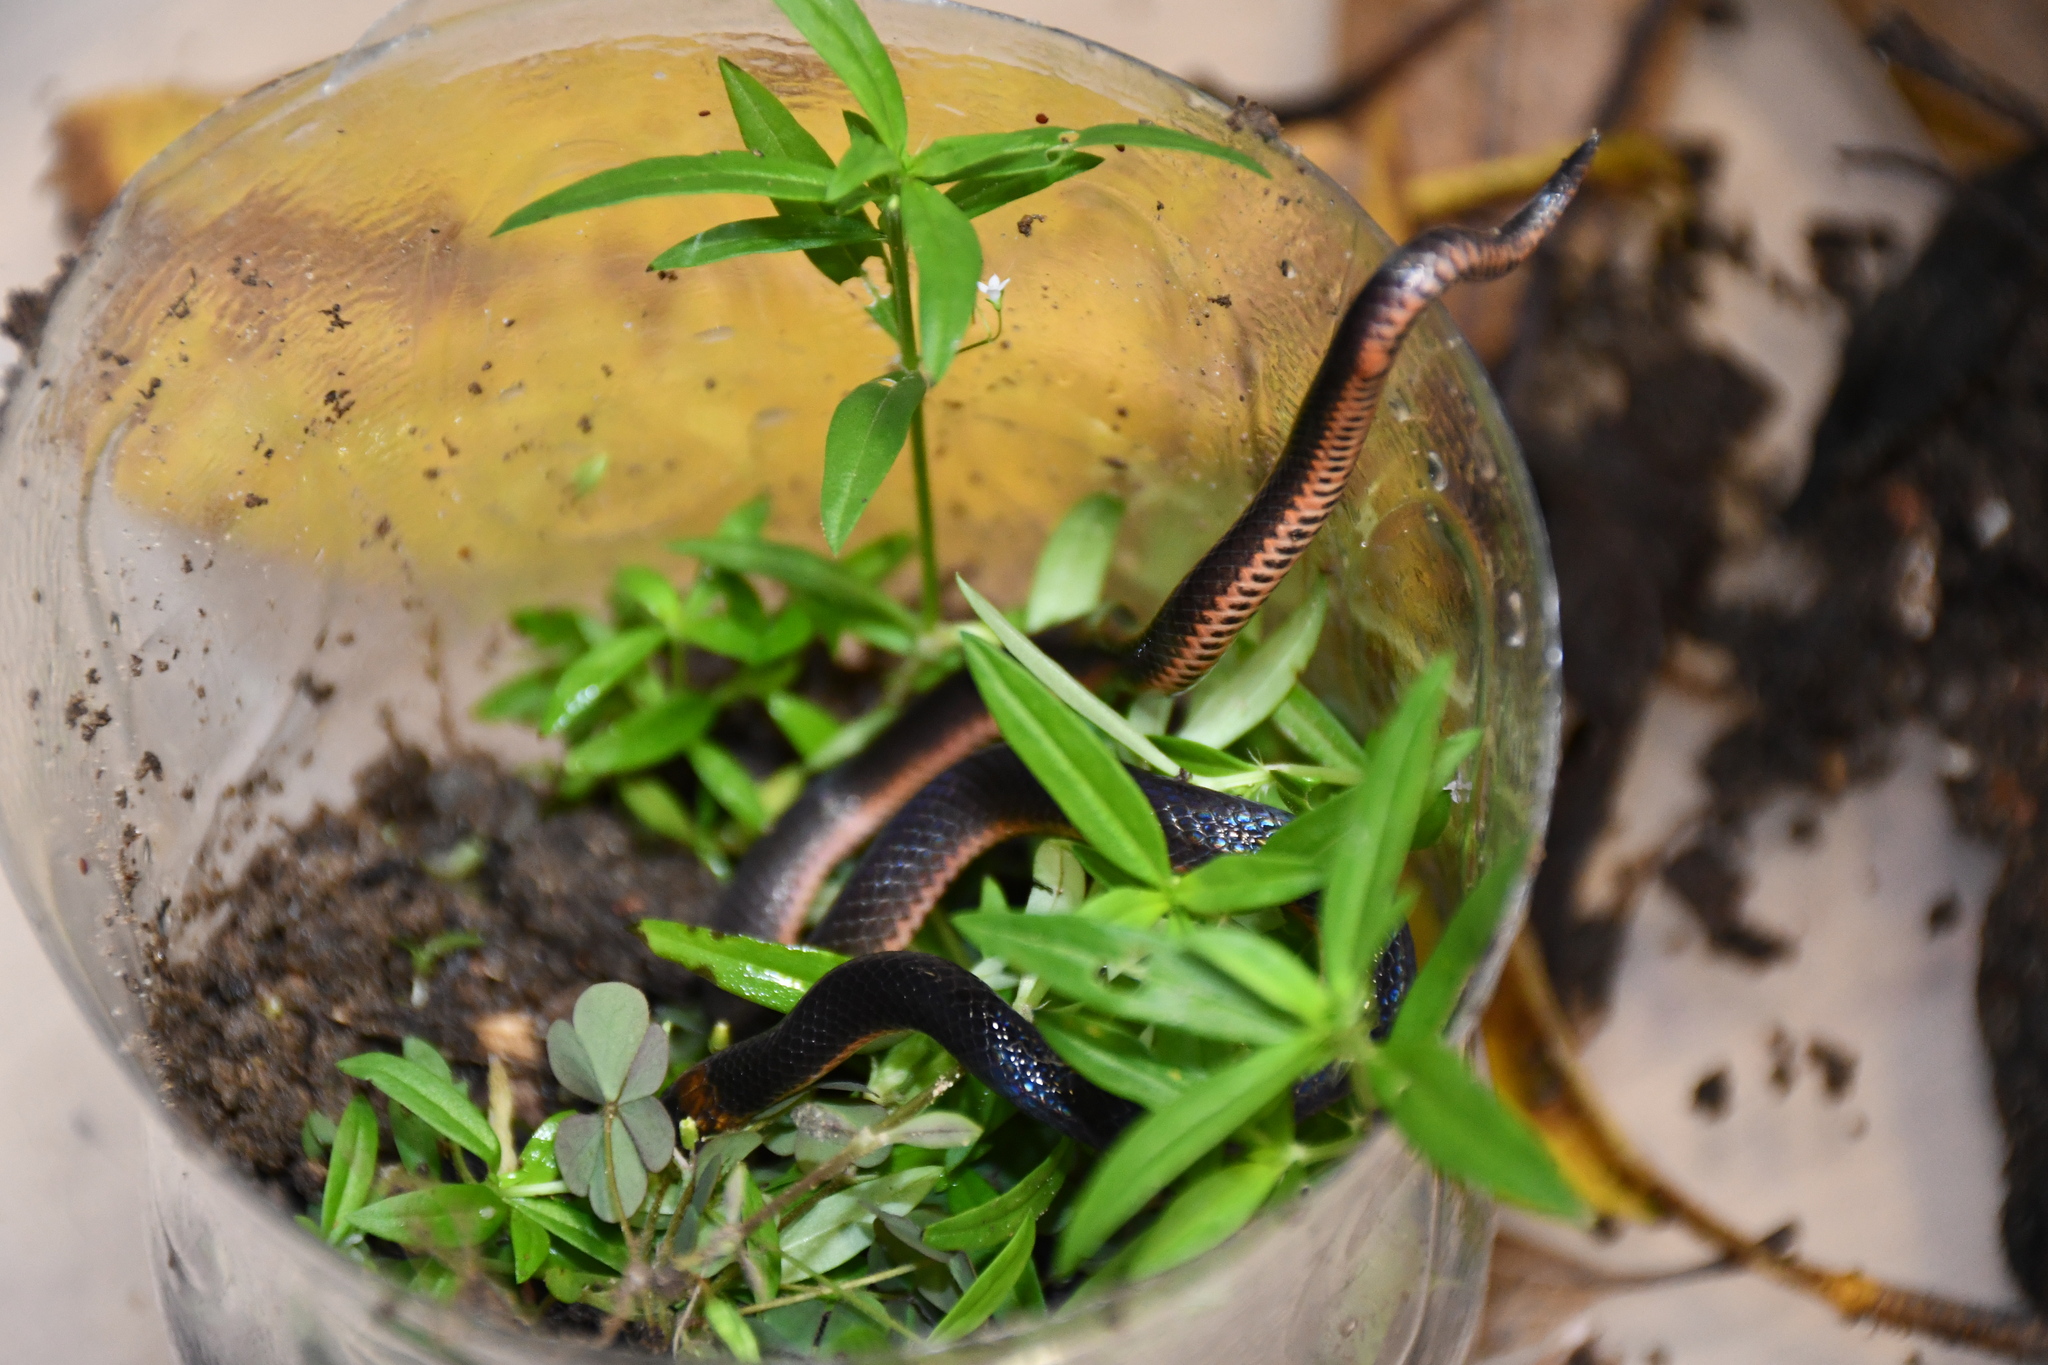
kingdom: Animalia
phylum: Chordata
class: Squamata
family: Colubridae
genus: Atractus
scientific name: Atractus emmeli
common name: Emmel's ground snake
